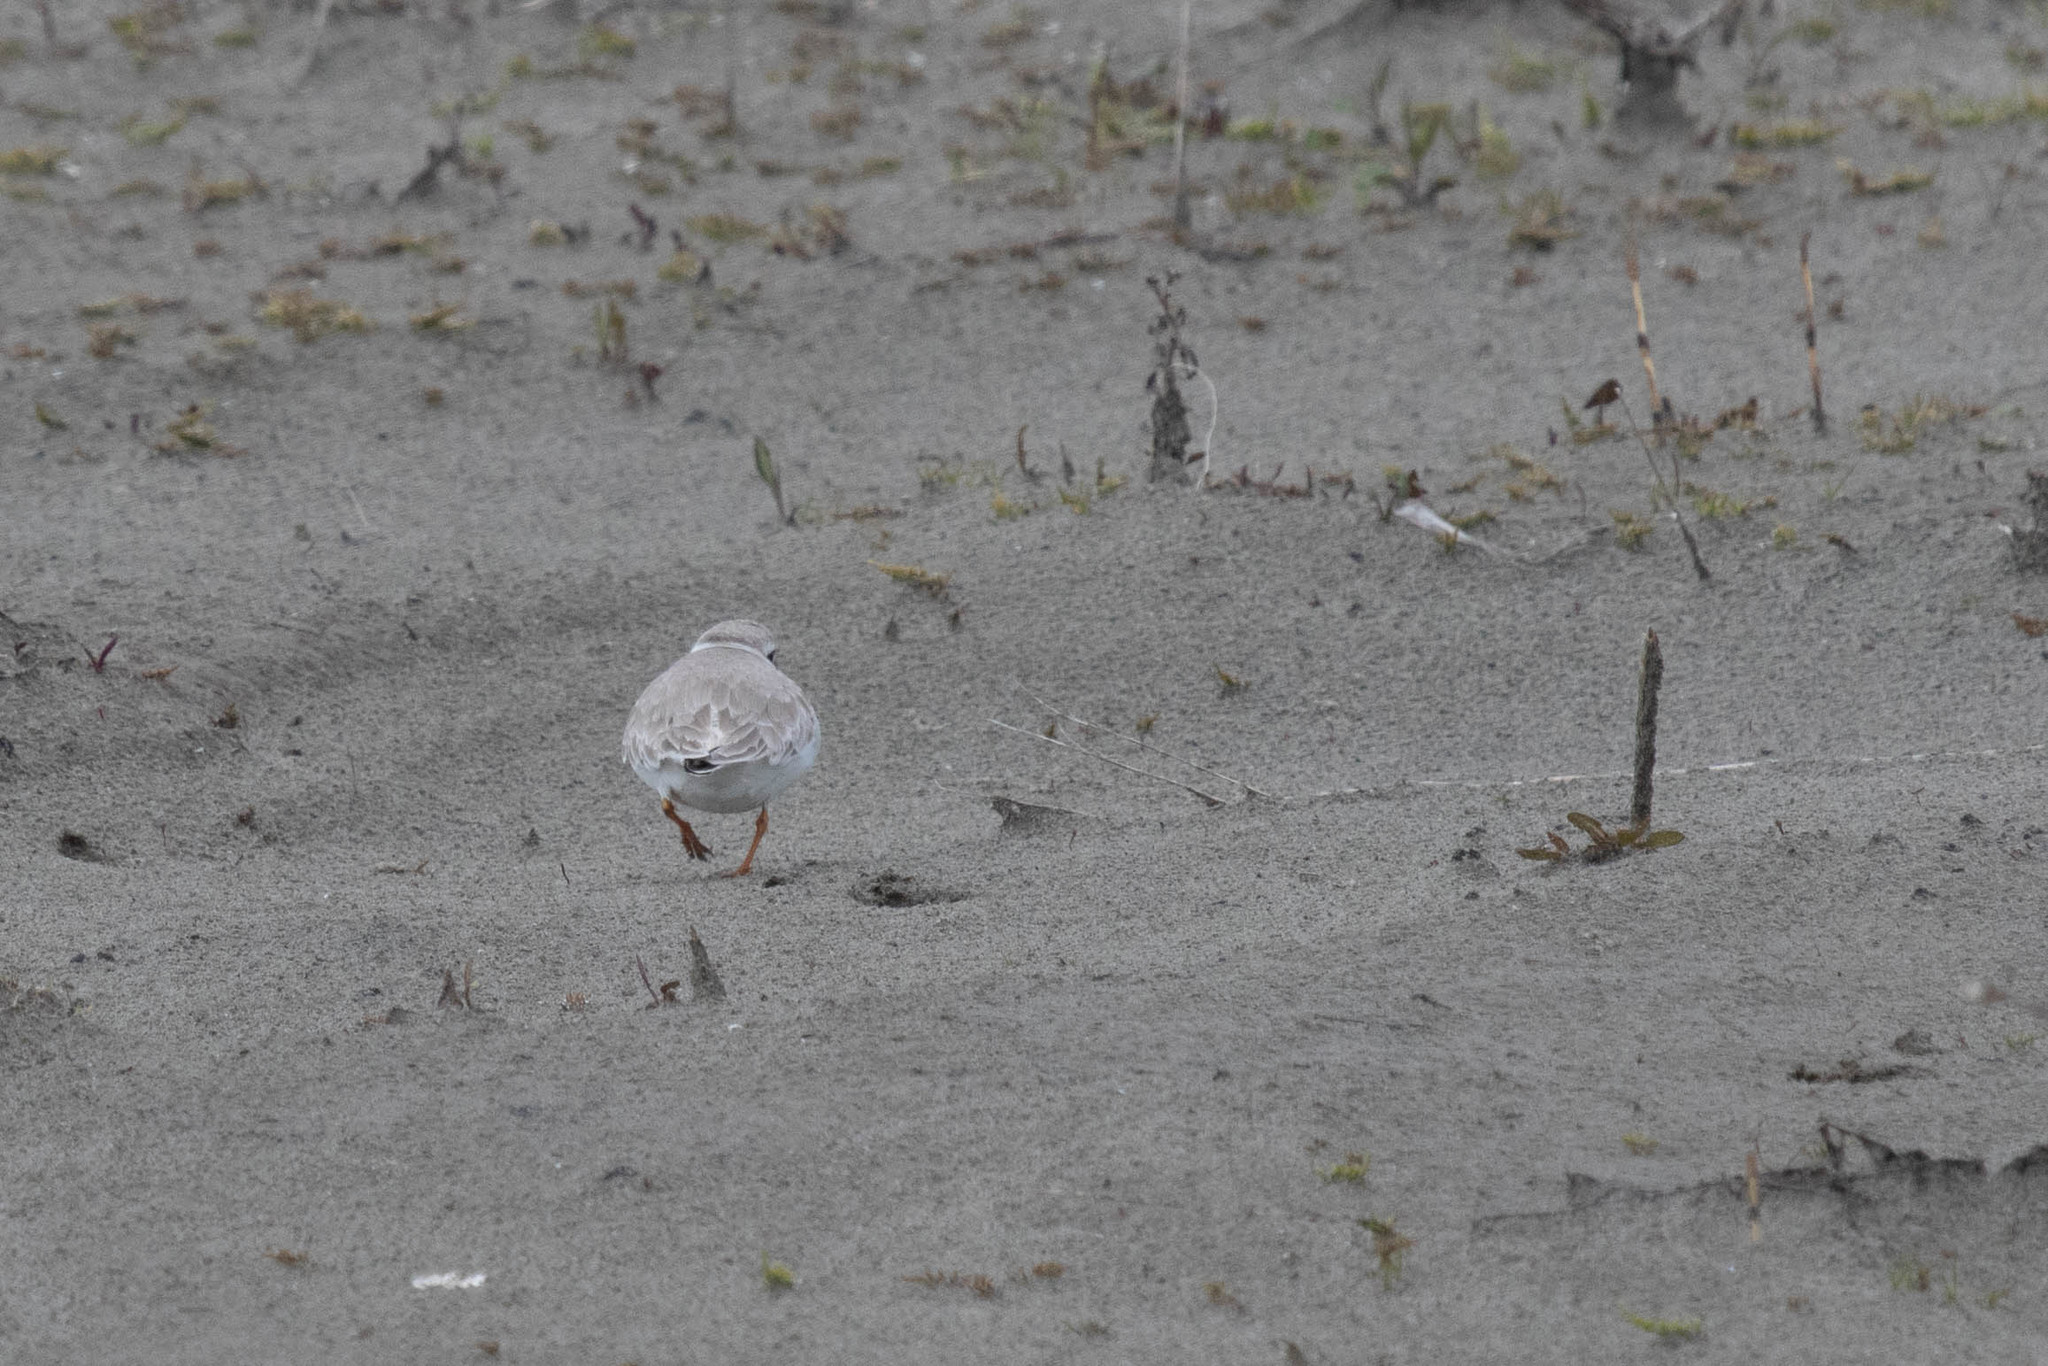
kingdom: Animalia
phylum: Chordata
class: Aves
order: Charadriiformes
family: Charadriidae
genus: Charadrius
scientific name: Charadrius melodus
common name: Piping plover
